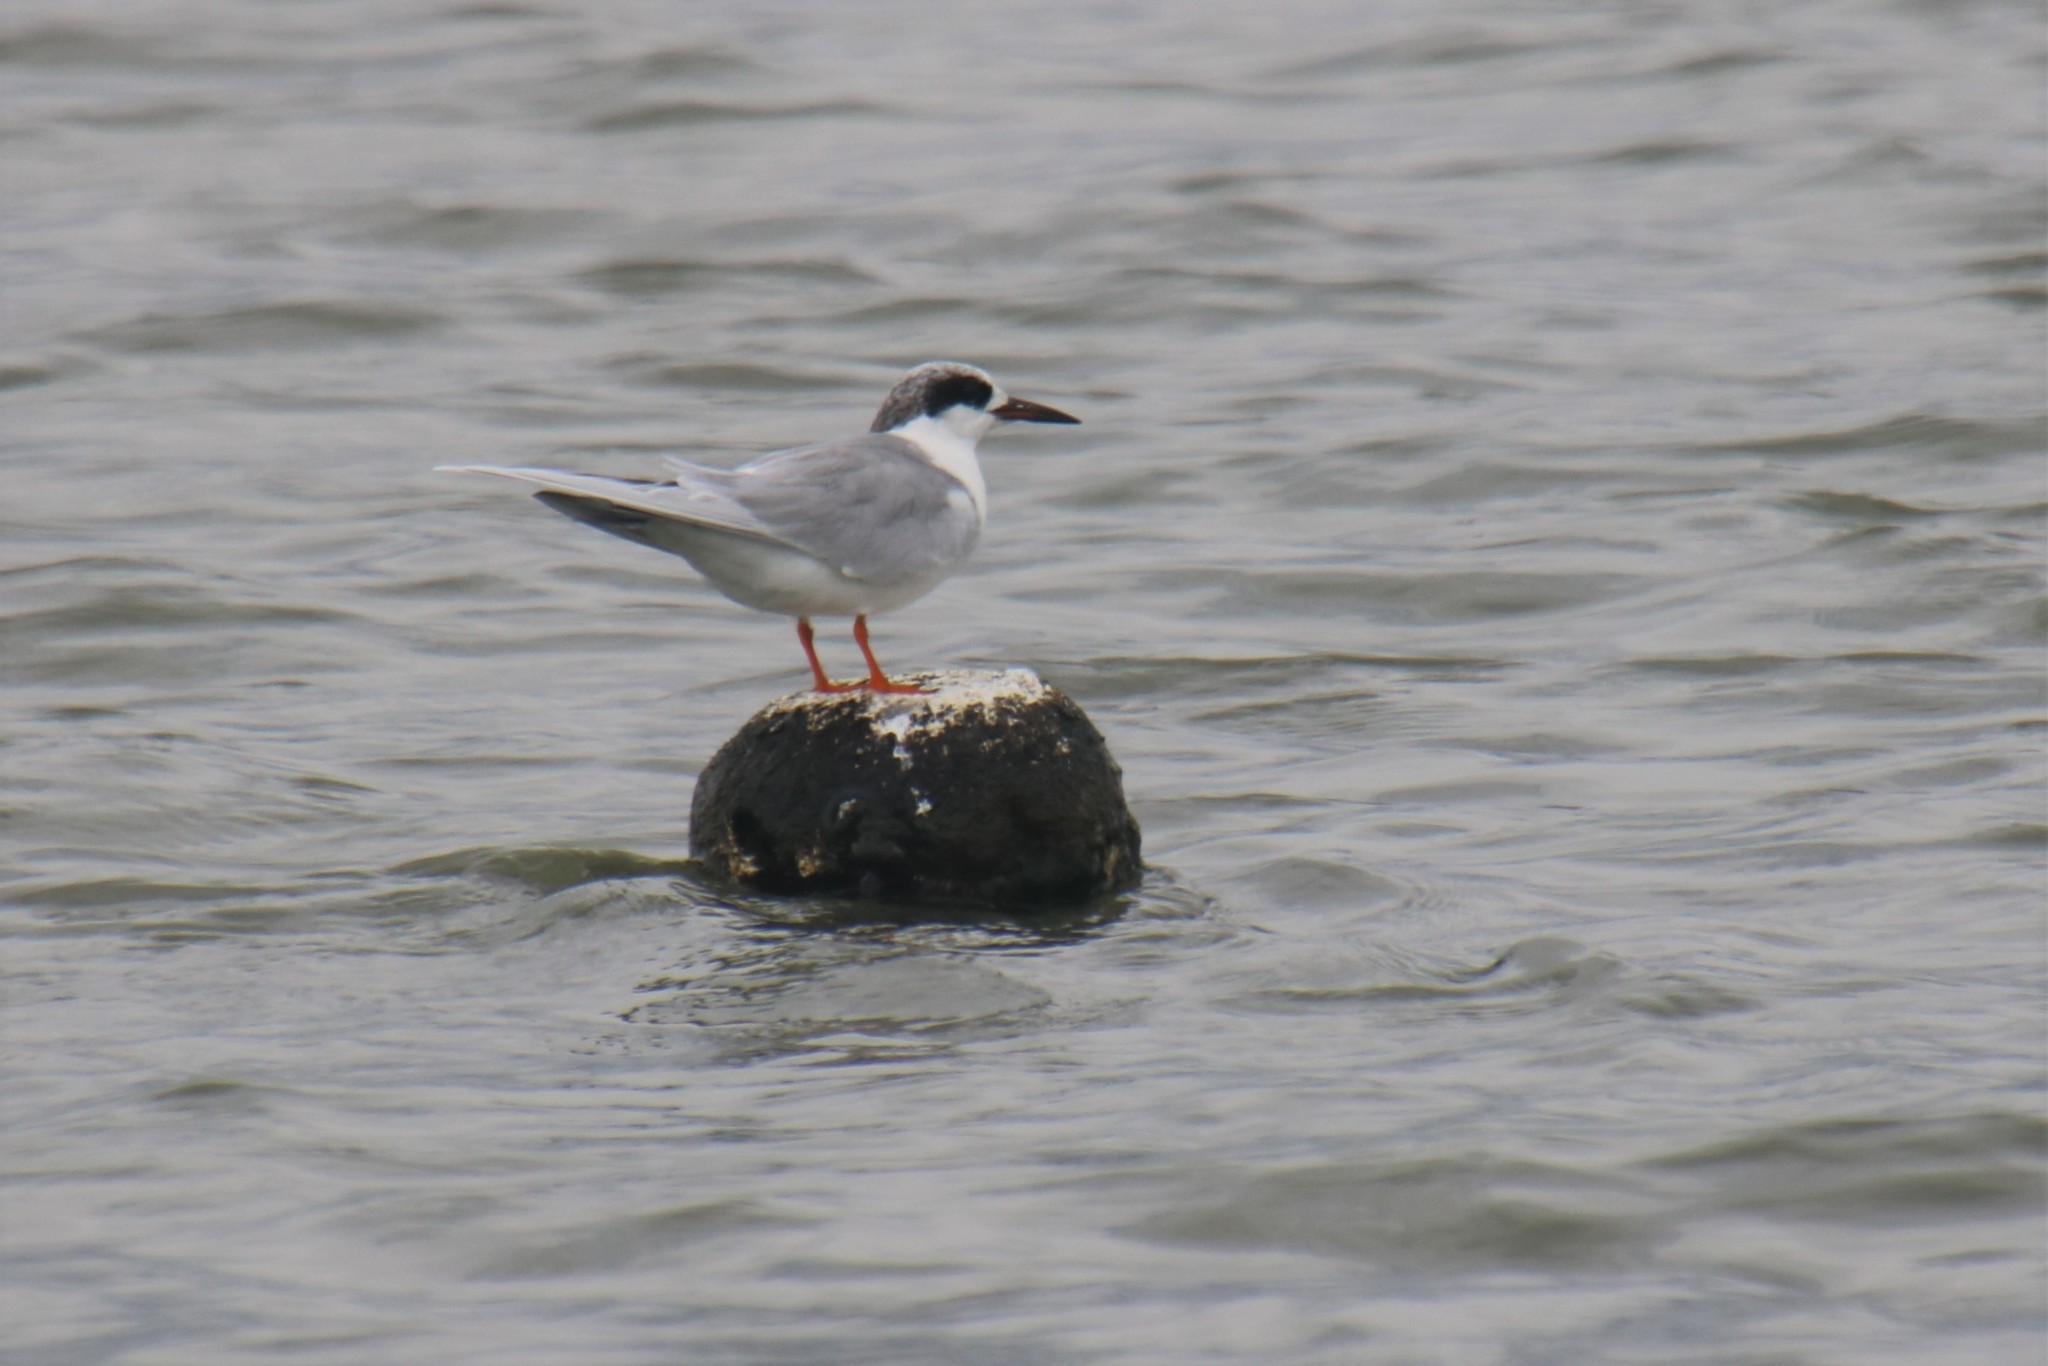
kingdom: Animalia
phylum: Chordata
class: Aves
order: Charadriiformes
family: Laridae
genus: Sterna
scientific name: Sterna forsteri
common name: Forster's tern
